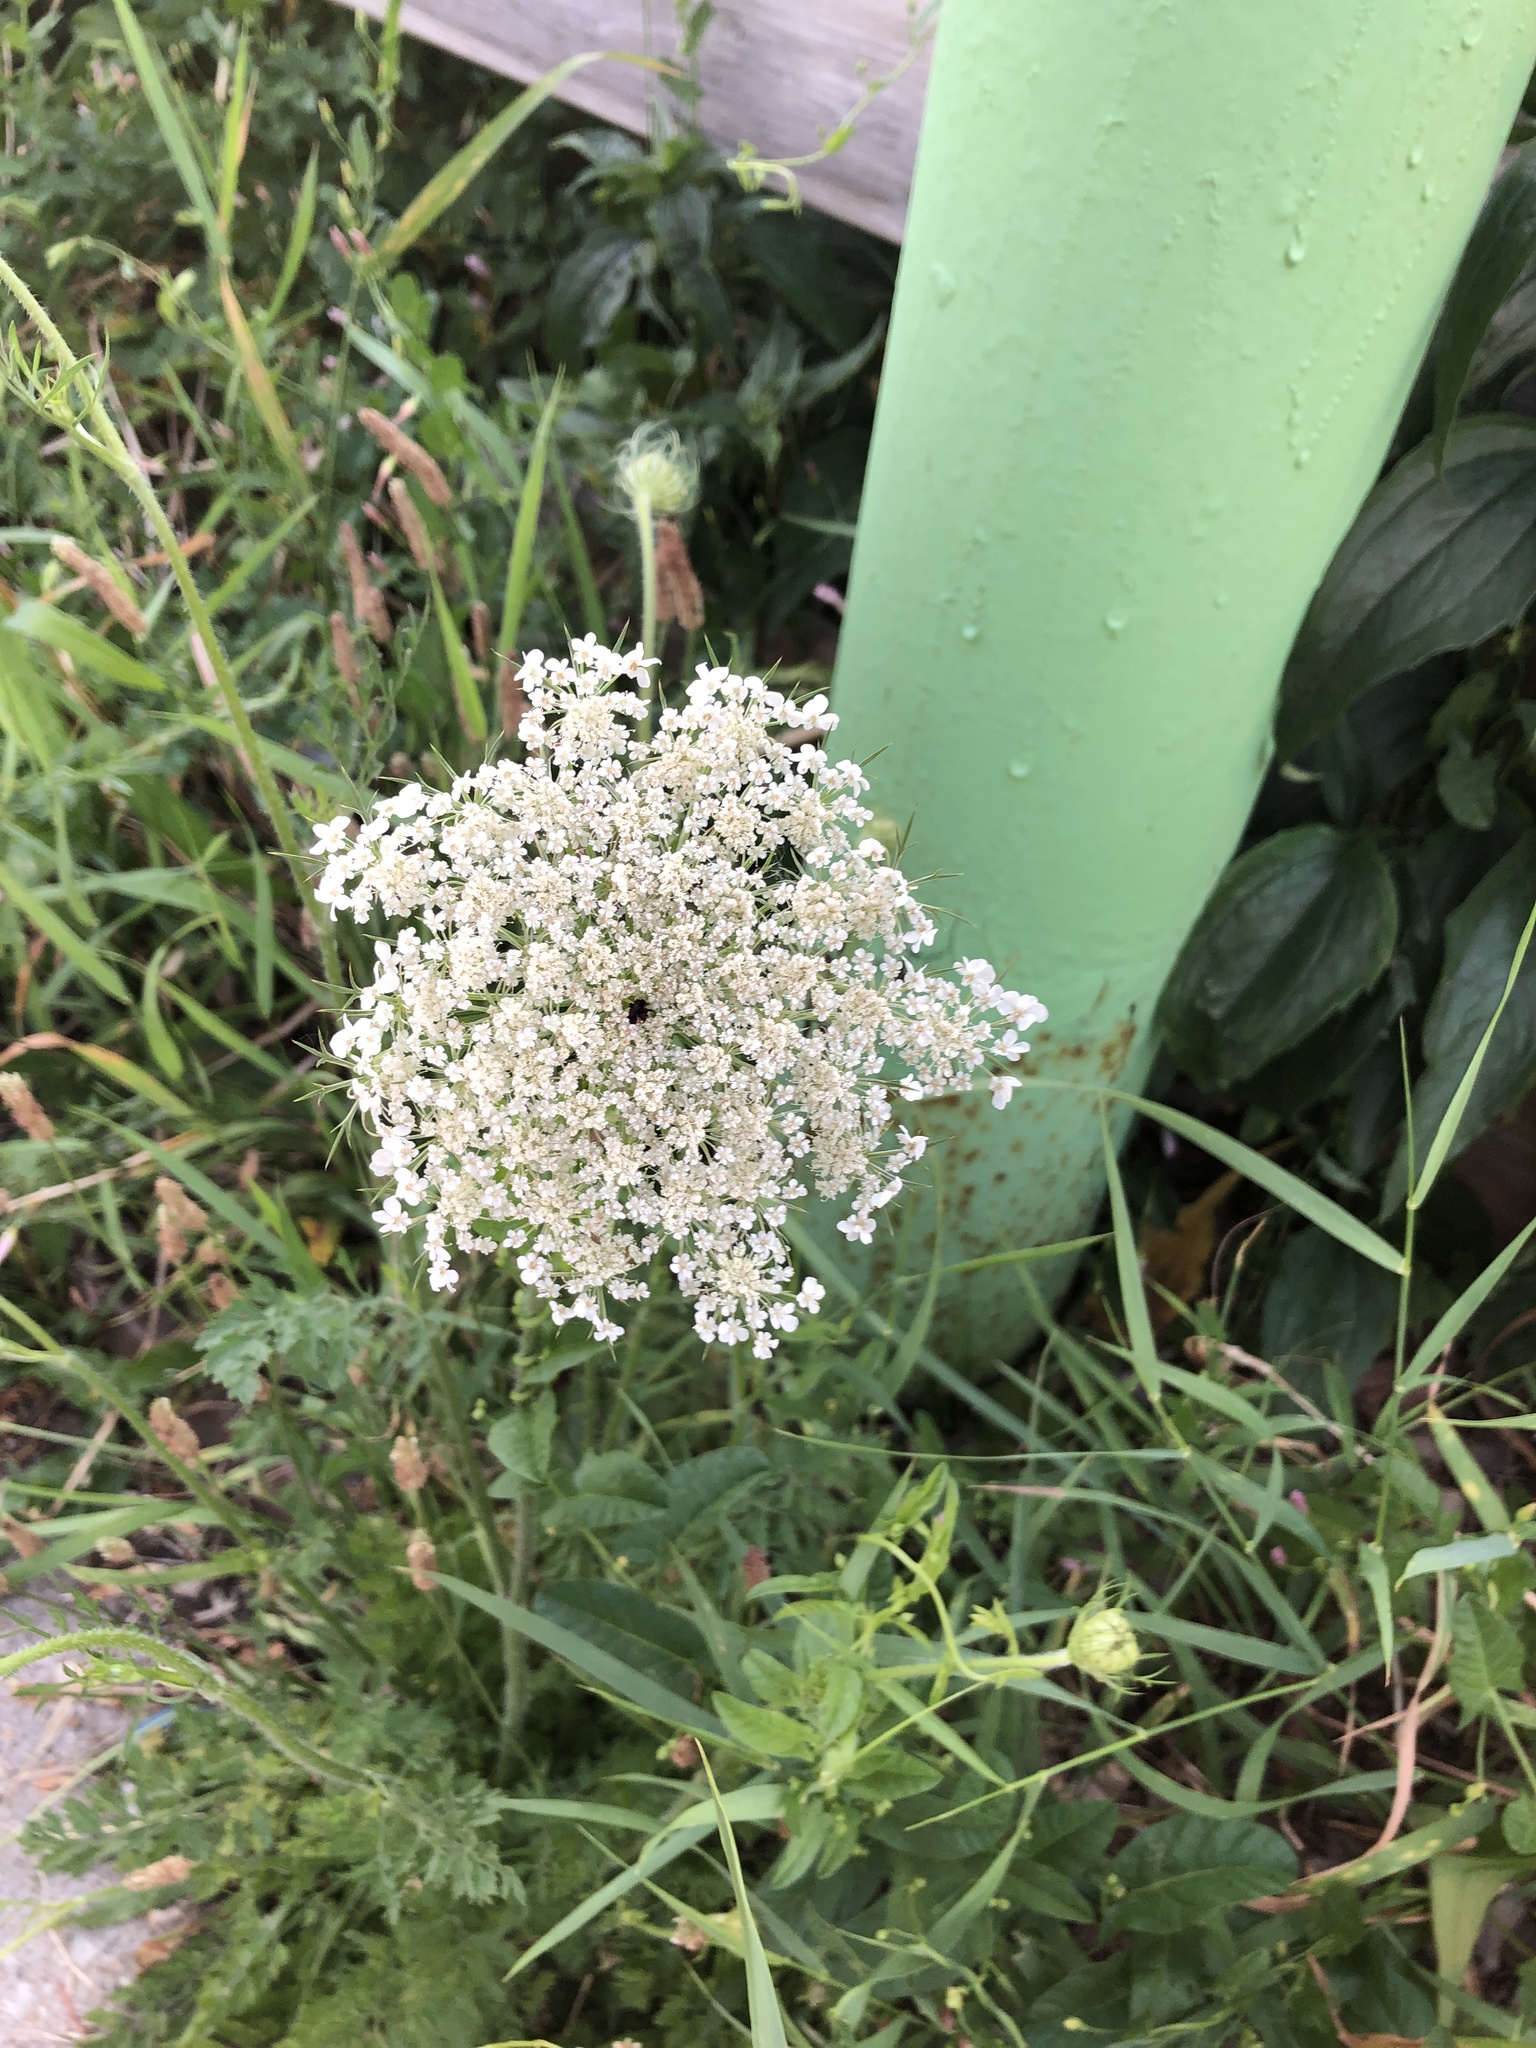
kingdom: Plantae
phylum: Tracheophyta
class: Magnoliopsida
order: Apiales
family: Apiaceae
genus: Daucus
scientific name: Daucus carota
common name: Wild carrot
